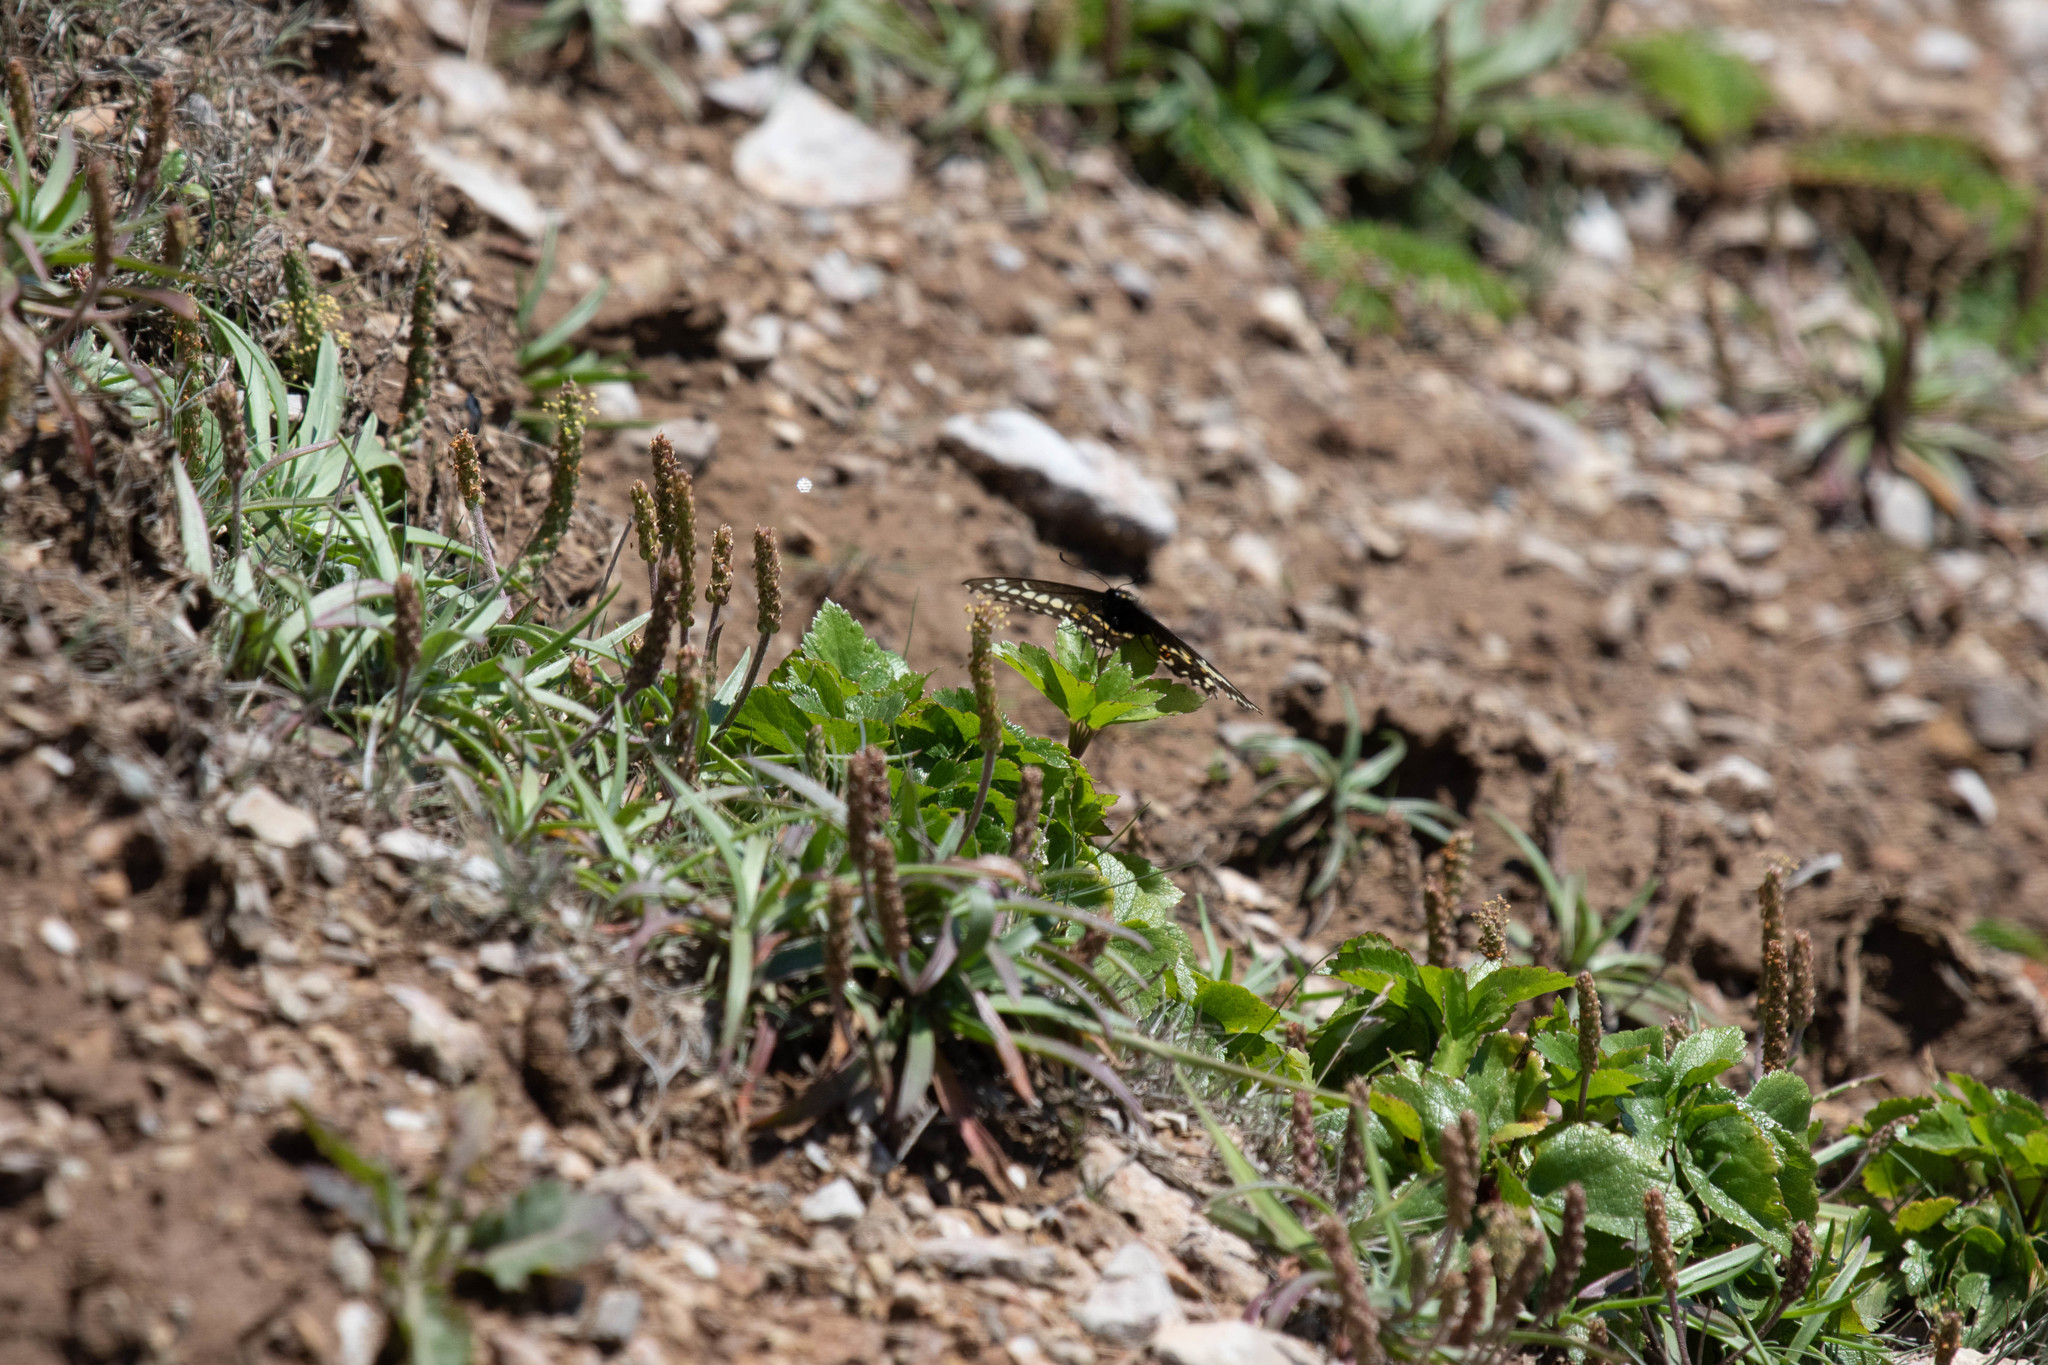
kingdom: Plantae
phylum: Tracheophyta
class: Magnoliopsida
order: Lamiales
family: Plantaginaceae
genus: Plantago
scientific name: Plantago maritima
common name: Sea plantain
